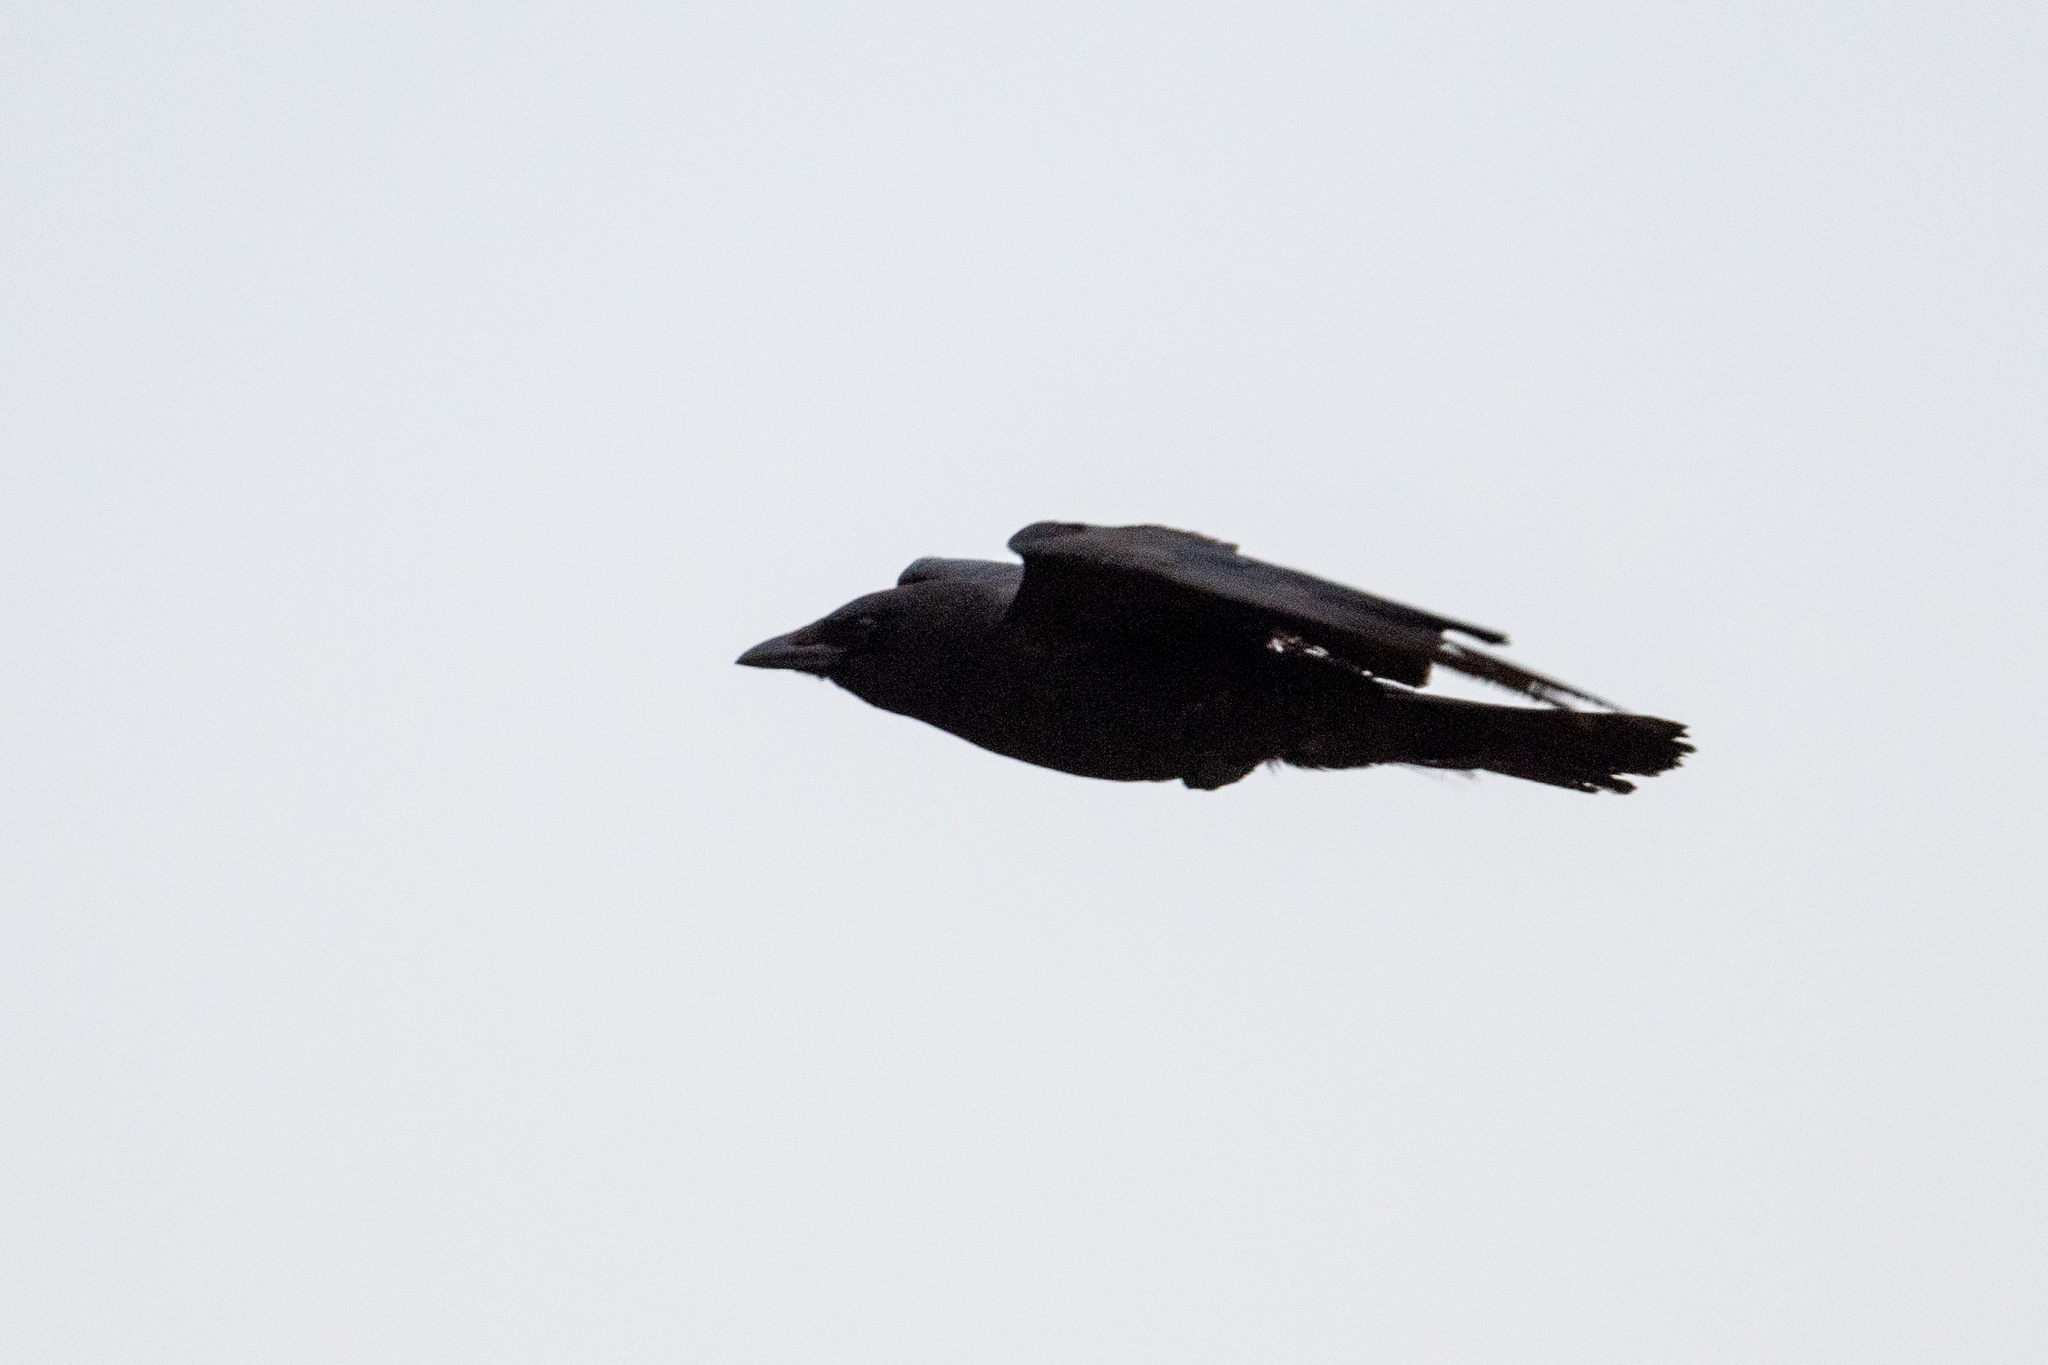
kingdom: Animalia
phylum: Chordata
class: Aves
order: Passeriformes
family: Corvidae
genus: Corvus
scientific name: Corvus brachyrhynchos
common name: American crow
